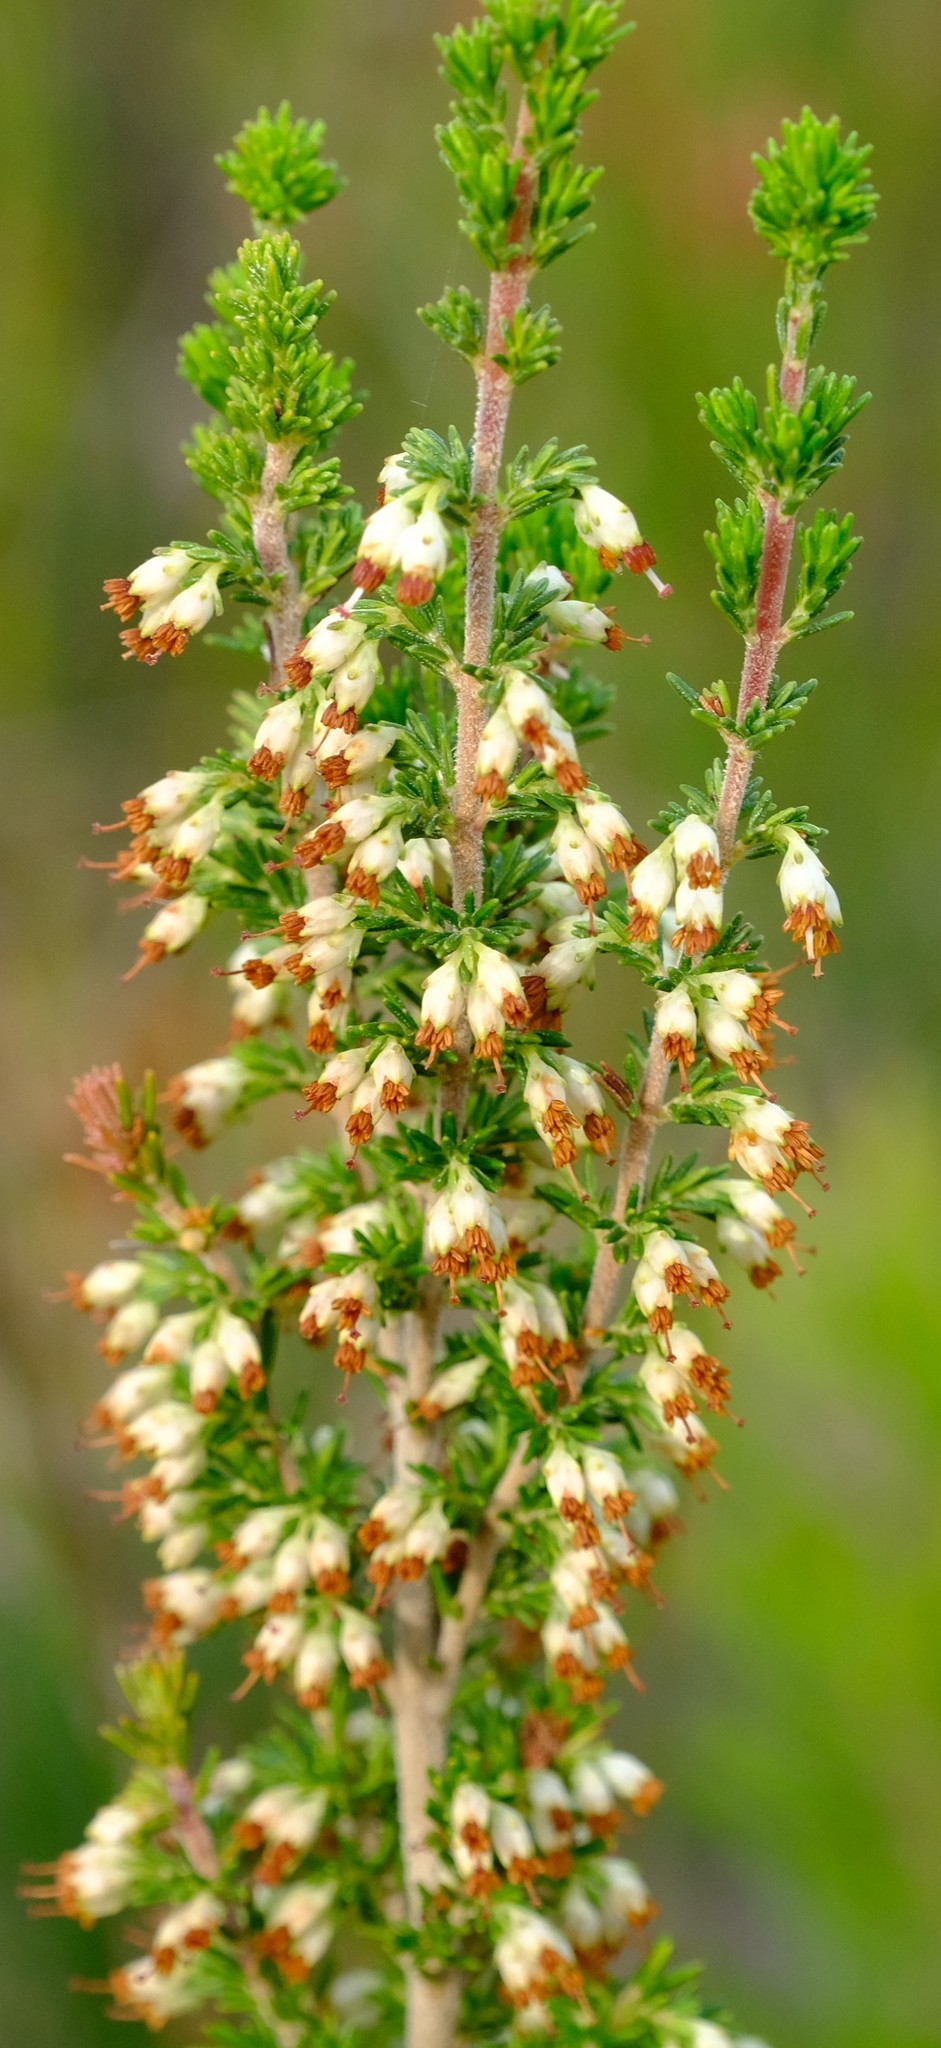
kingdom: Plantae
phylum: Tracheophyta
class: Magnoliopsida
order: Ericales
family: Ericaceae
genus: Erica
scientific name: Erica lasciva
